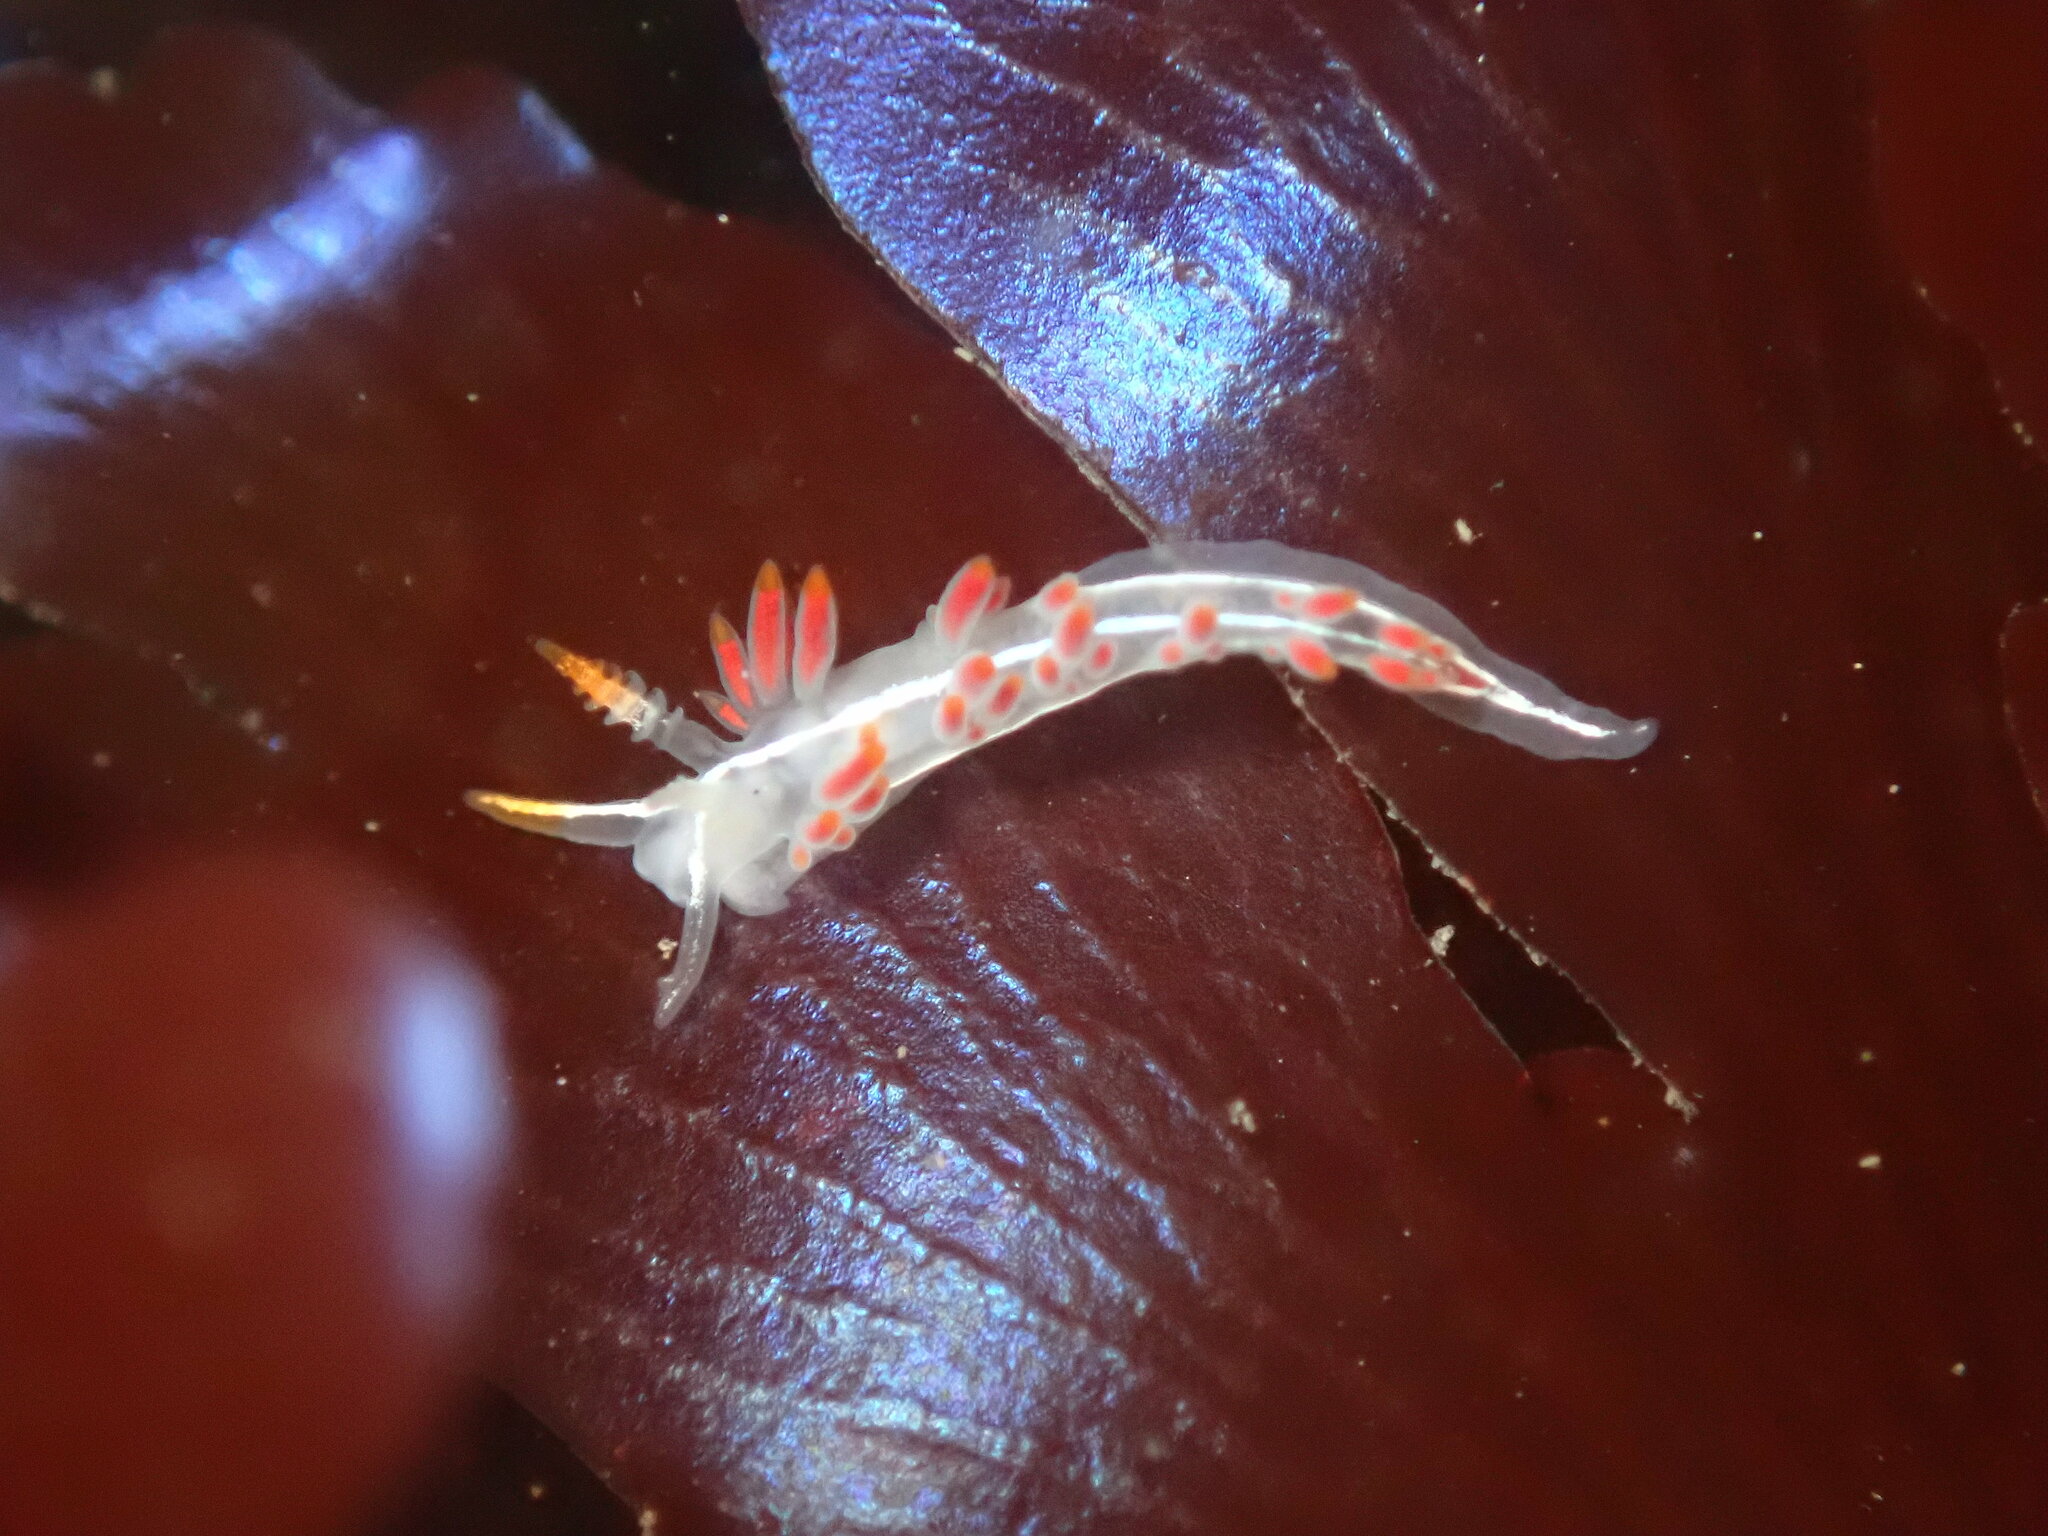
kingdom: Animalia
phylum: Mollusca
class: Gastropoda
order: Nudibranchia
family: Coryphellidae
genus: Coryphella
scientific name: Coryphella trilineata
